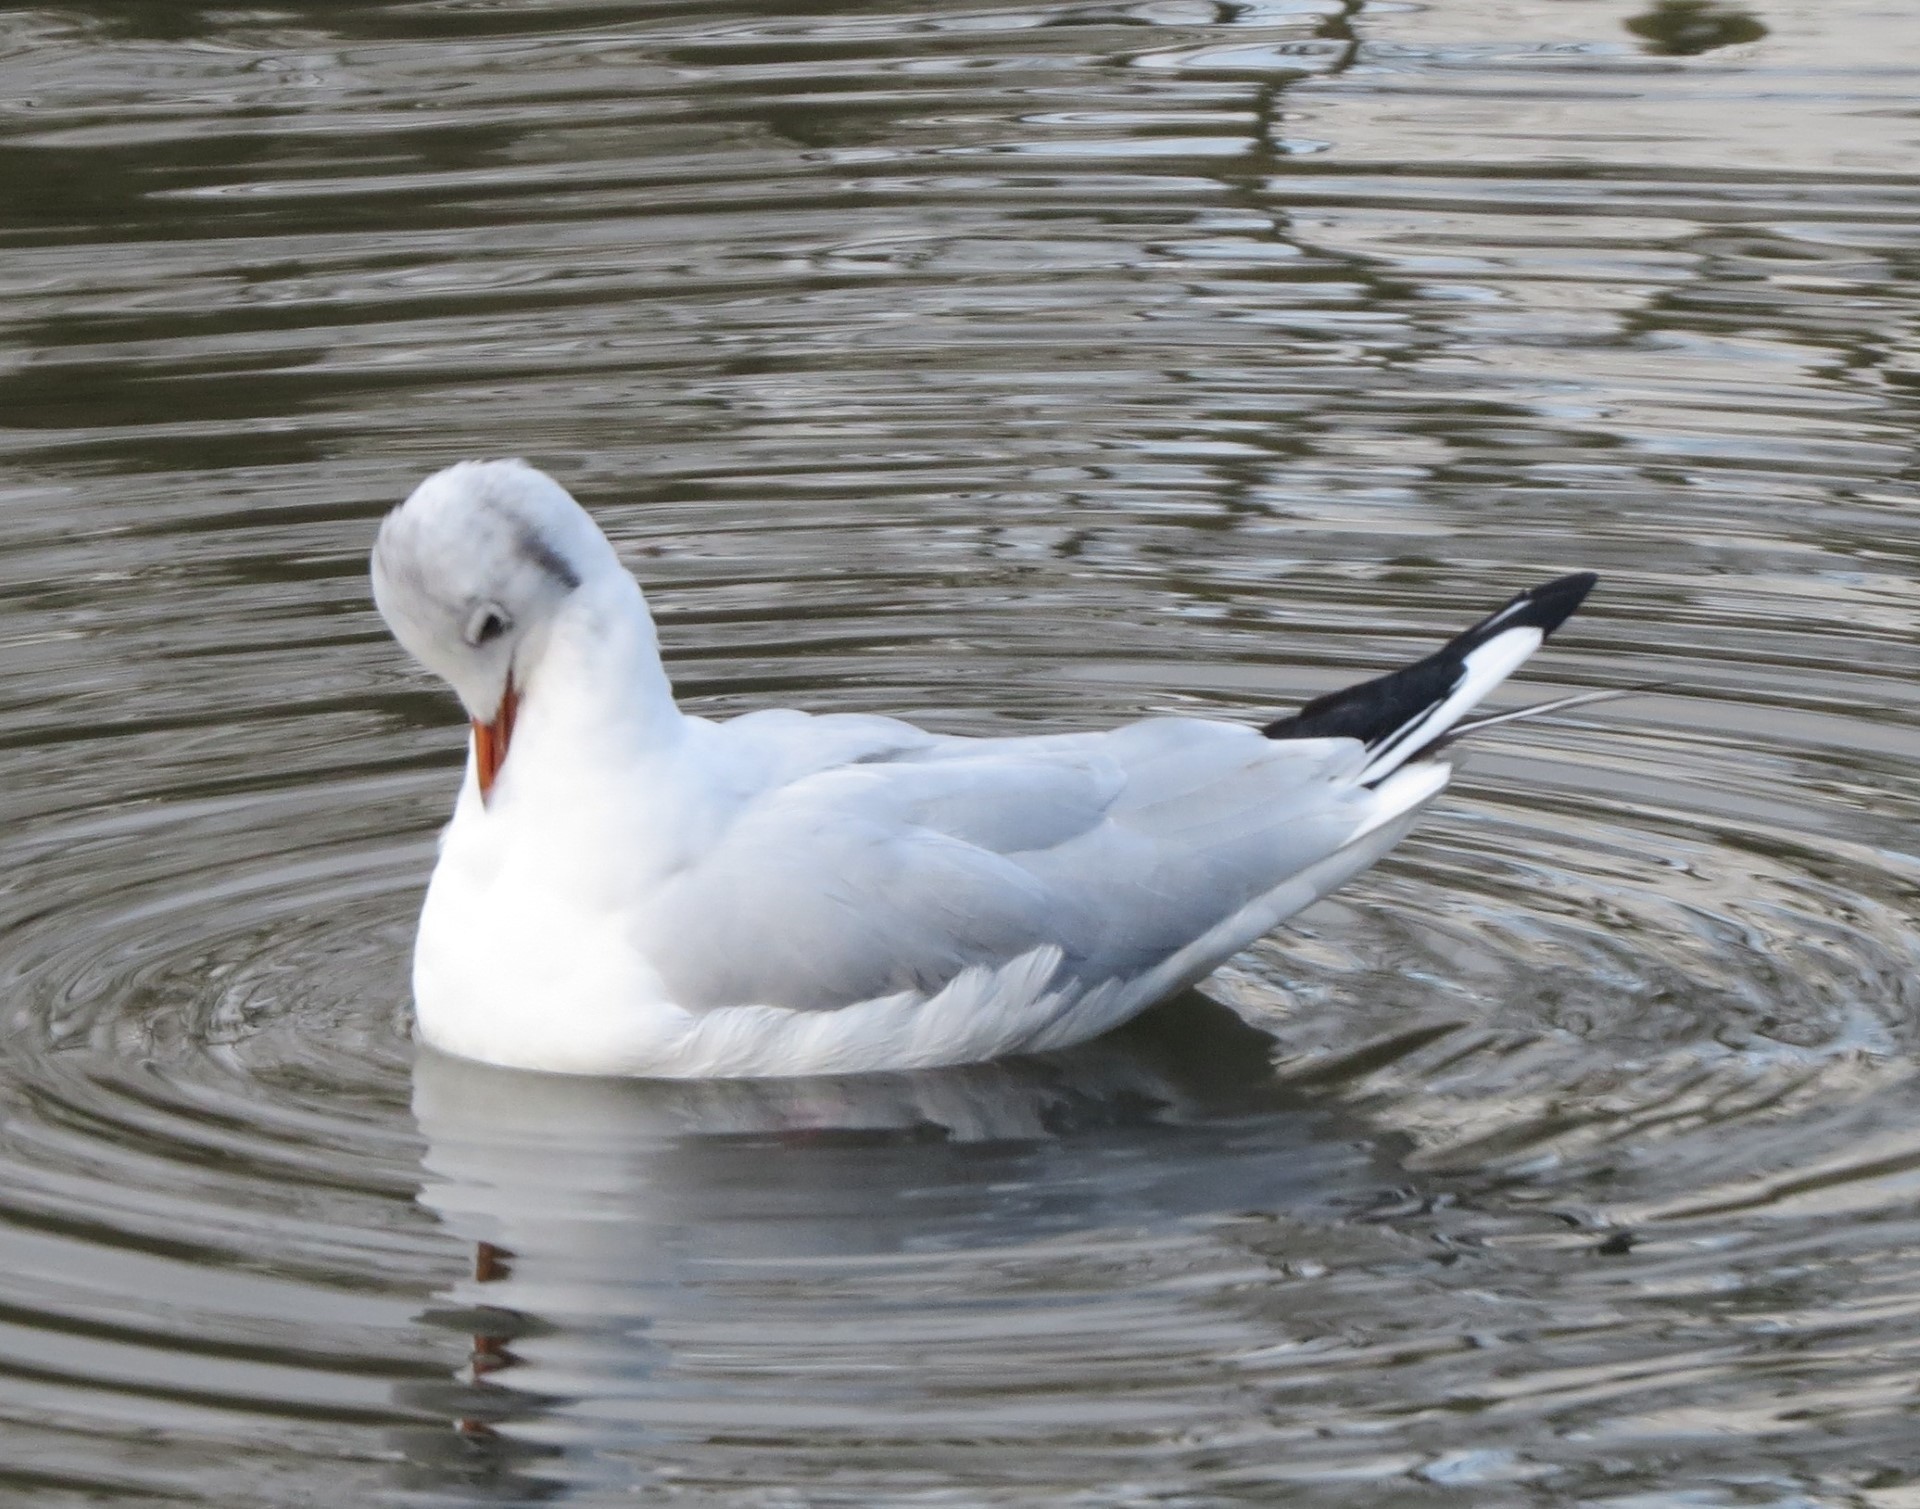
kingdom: Animalia
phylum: Chordata
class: Aves
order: Charadriiformes
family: Laridae
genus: Chroicocephalus
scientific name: Chroicocephalus ridibundus
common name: Black-headed gull
